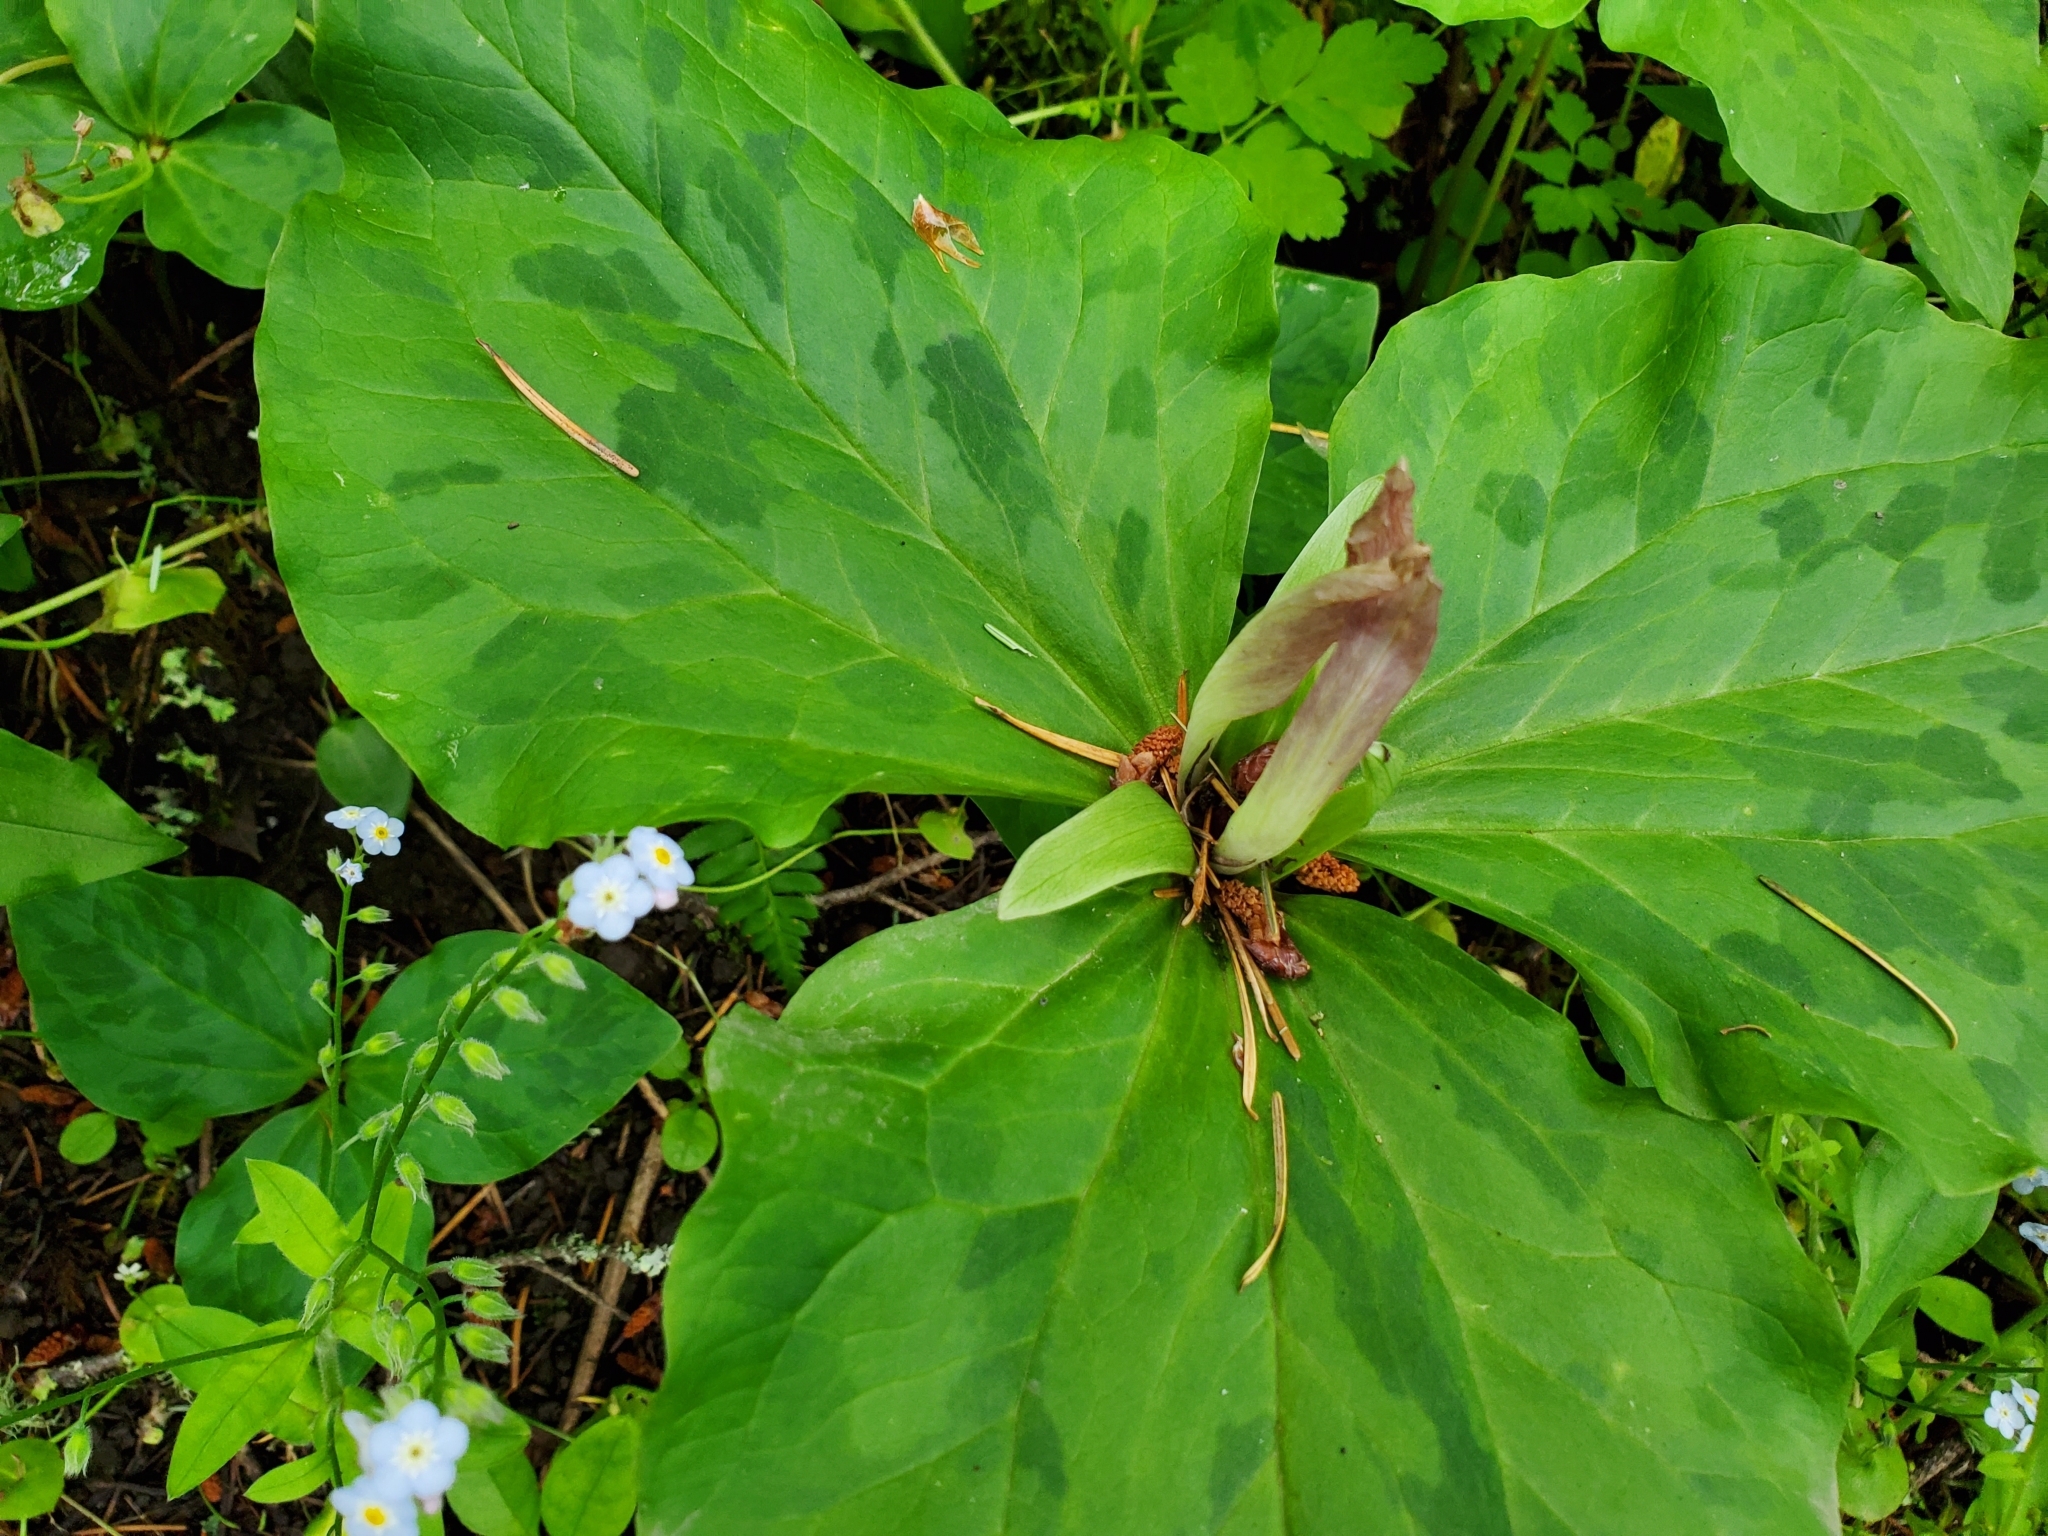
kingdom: Plantae
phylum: Tracheophyta
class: Liliopsida
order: Liliales
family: Melanthiaceae
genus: Trillium
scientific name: Trillium chloropetalum
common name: Giant trillium
